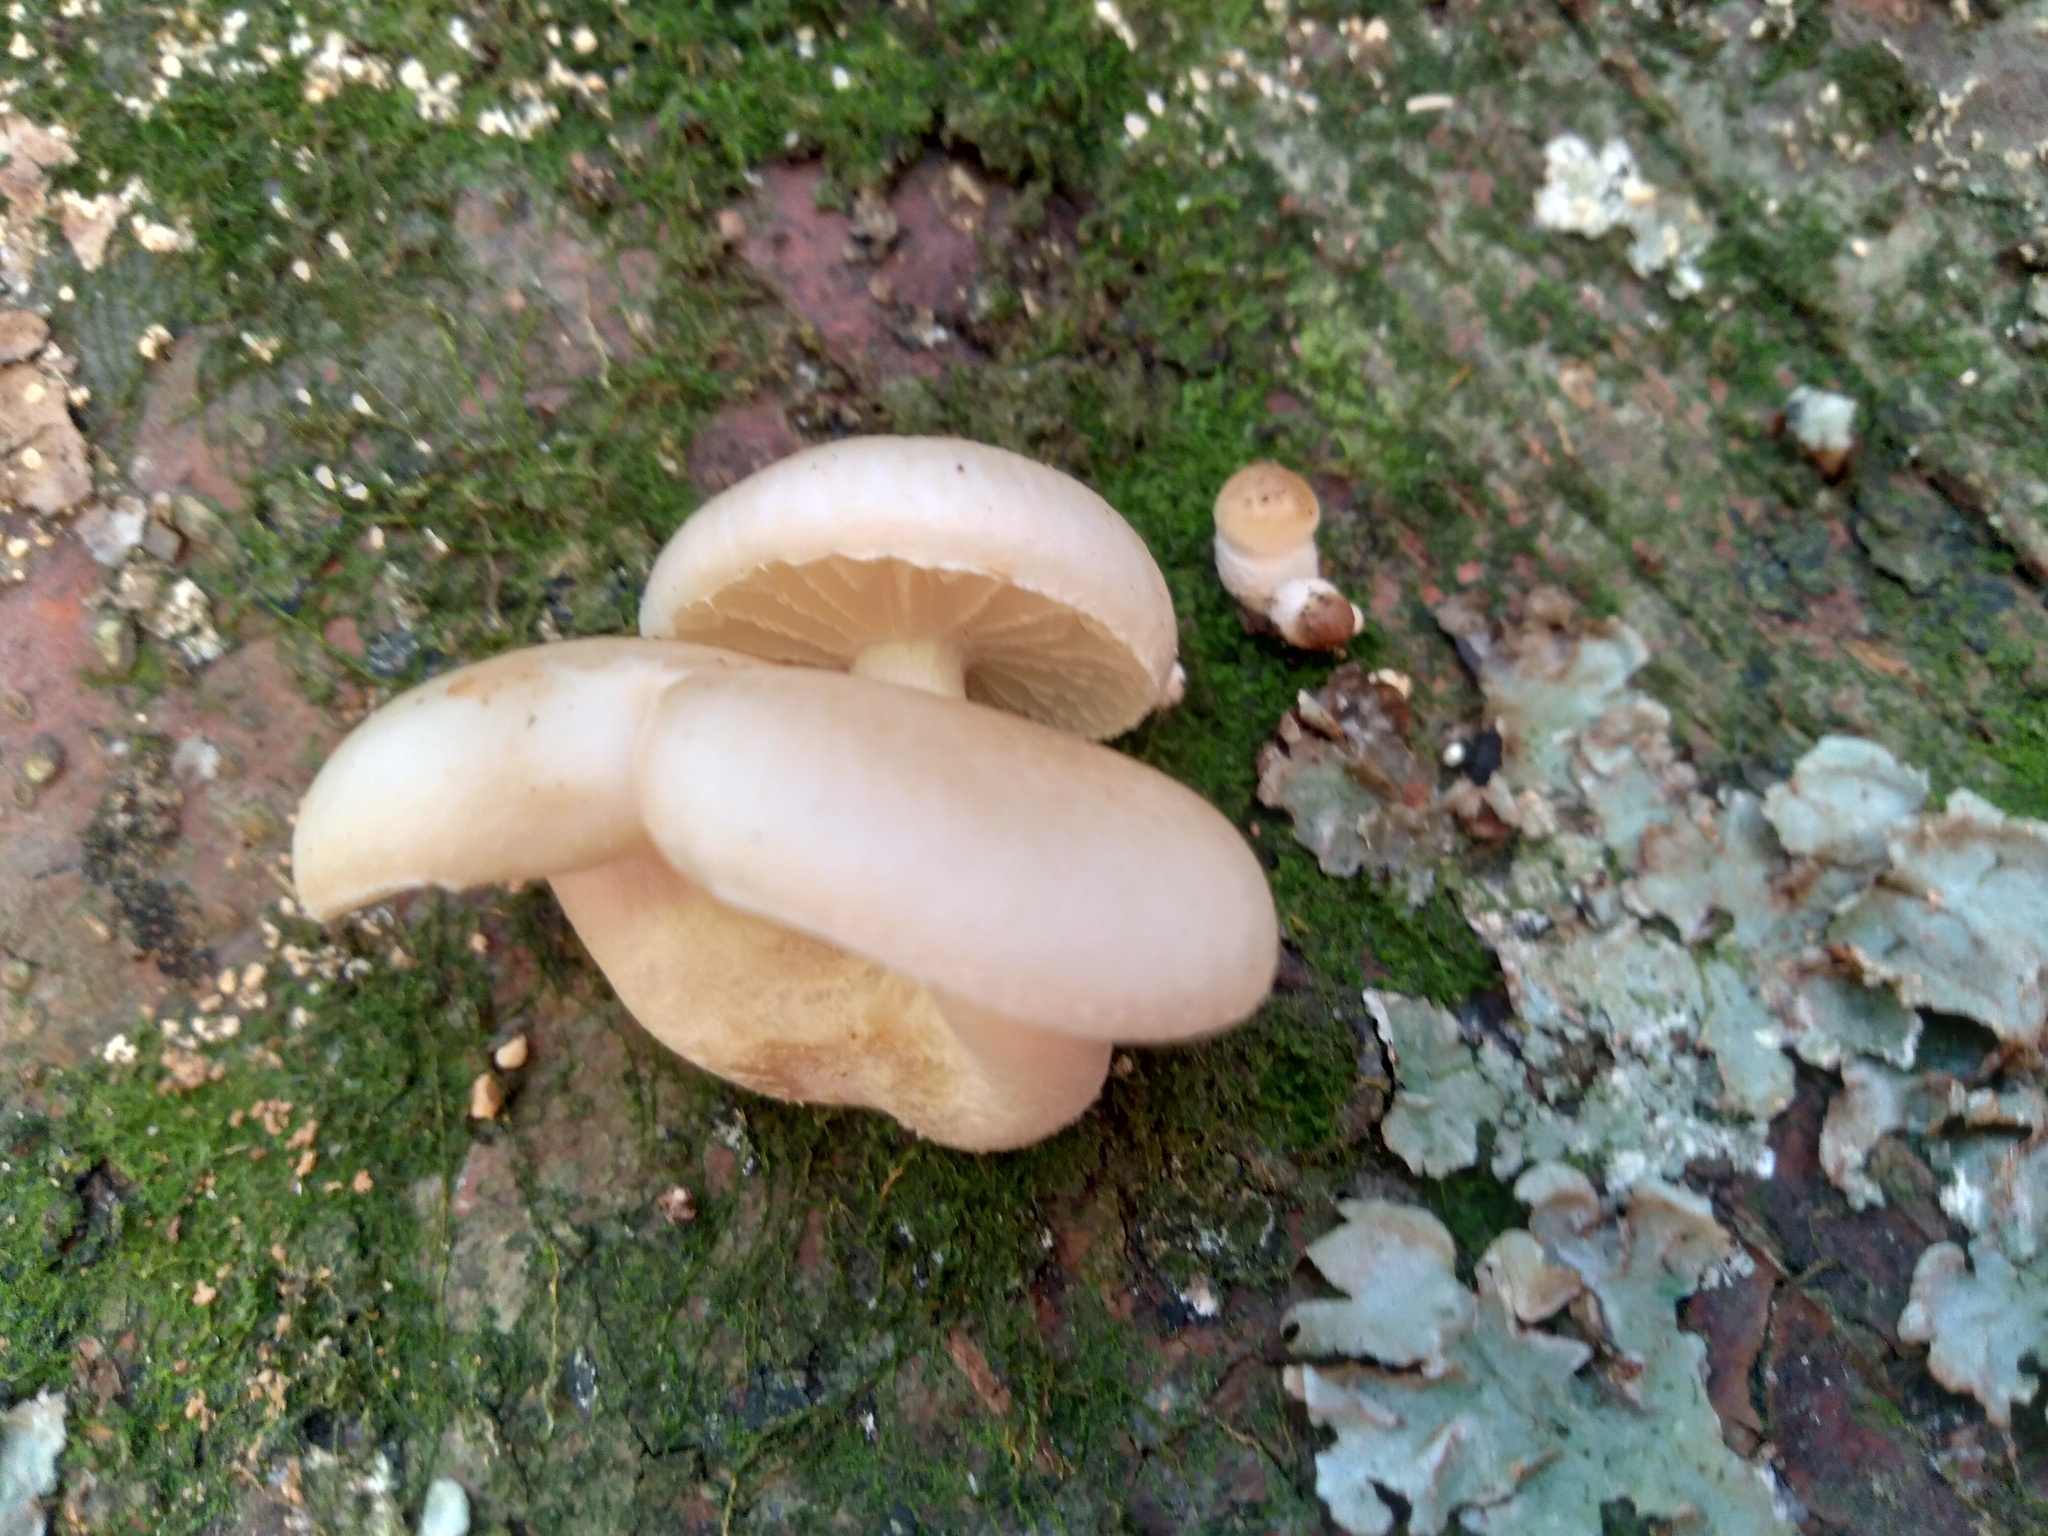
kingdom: Fungi
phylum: Basidiomycota
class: Agaricomycetes
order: Agaricales
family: Physalacriaceae
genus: Oudemansiella
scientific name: Oudemansiella australis
